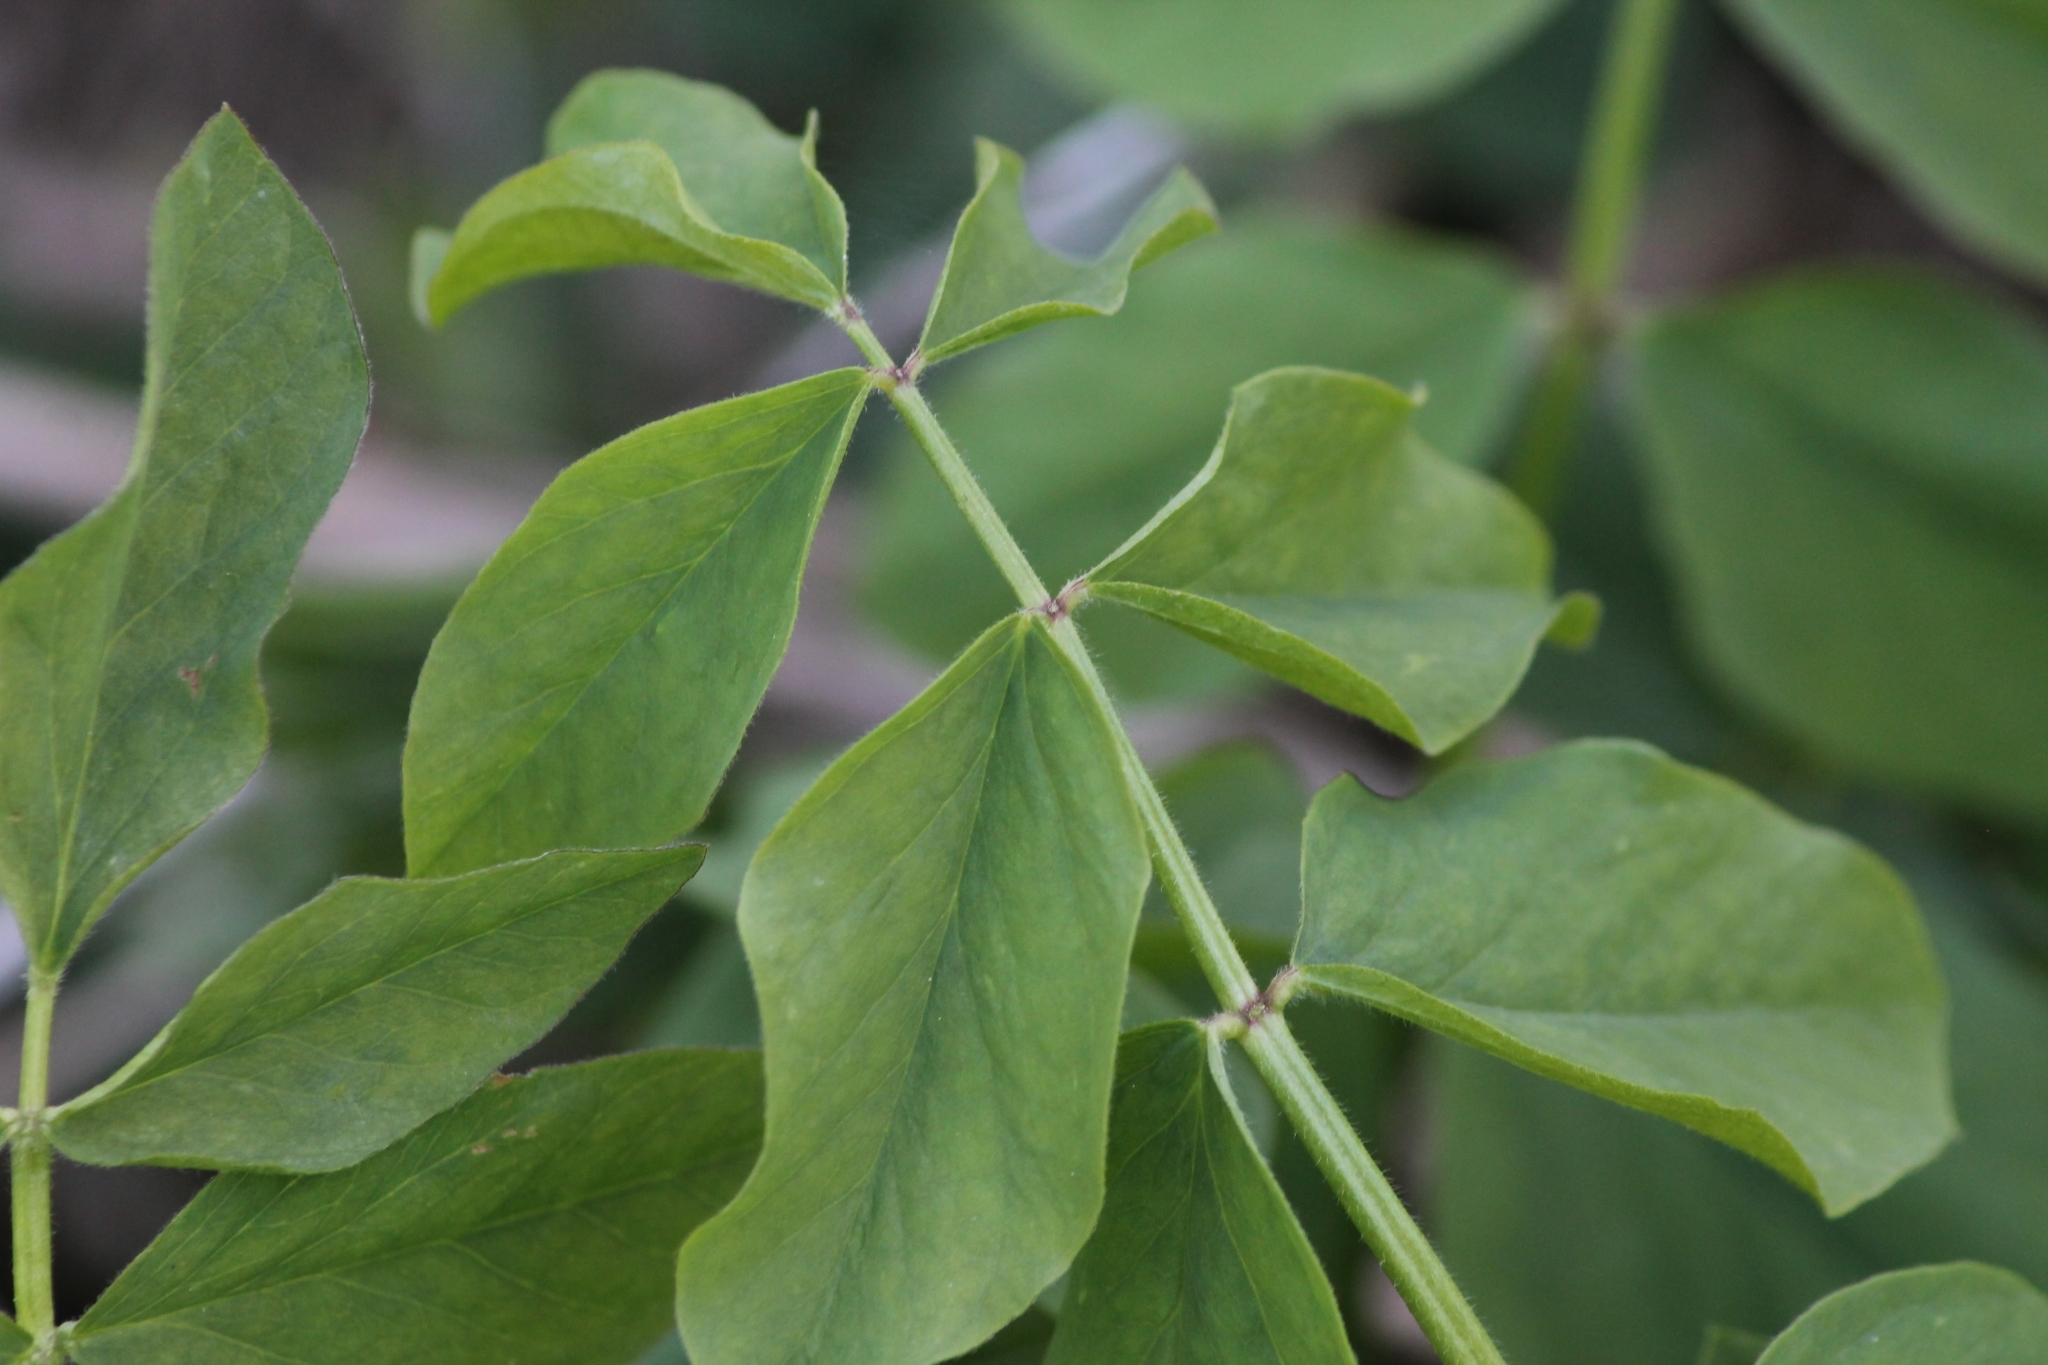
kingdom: Plantae
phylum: Tracheophyta
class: Magnoliopsida
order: Fabales
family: Fabaceae
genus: Galega
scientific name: Galega orientalis
